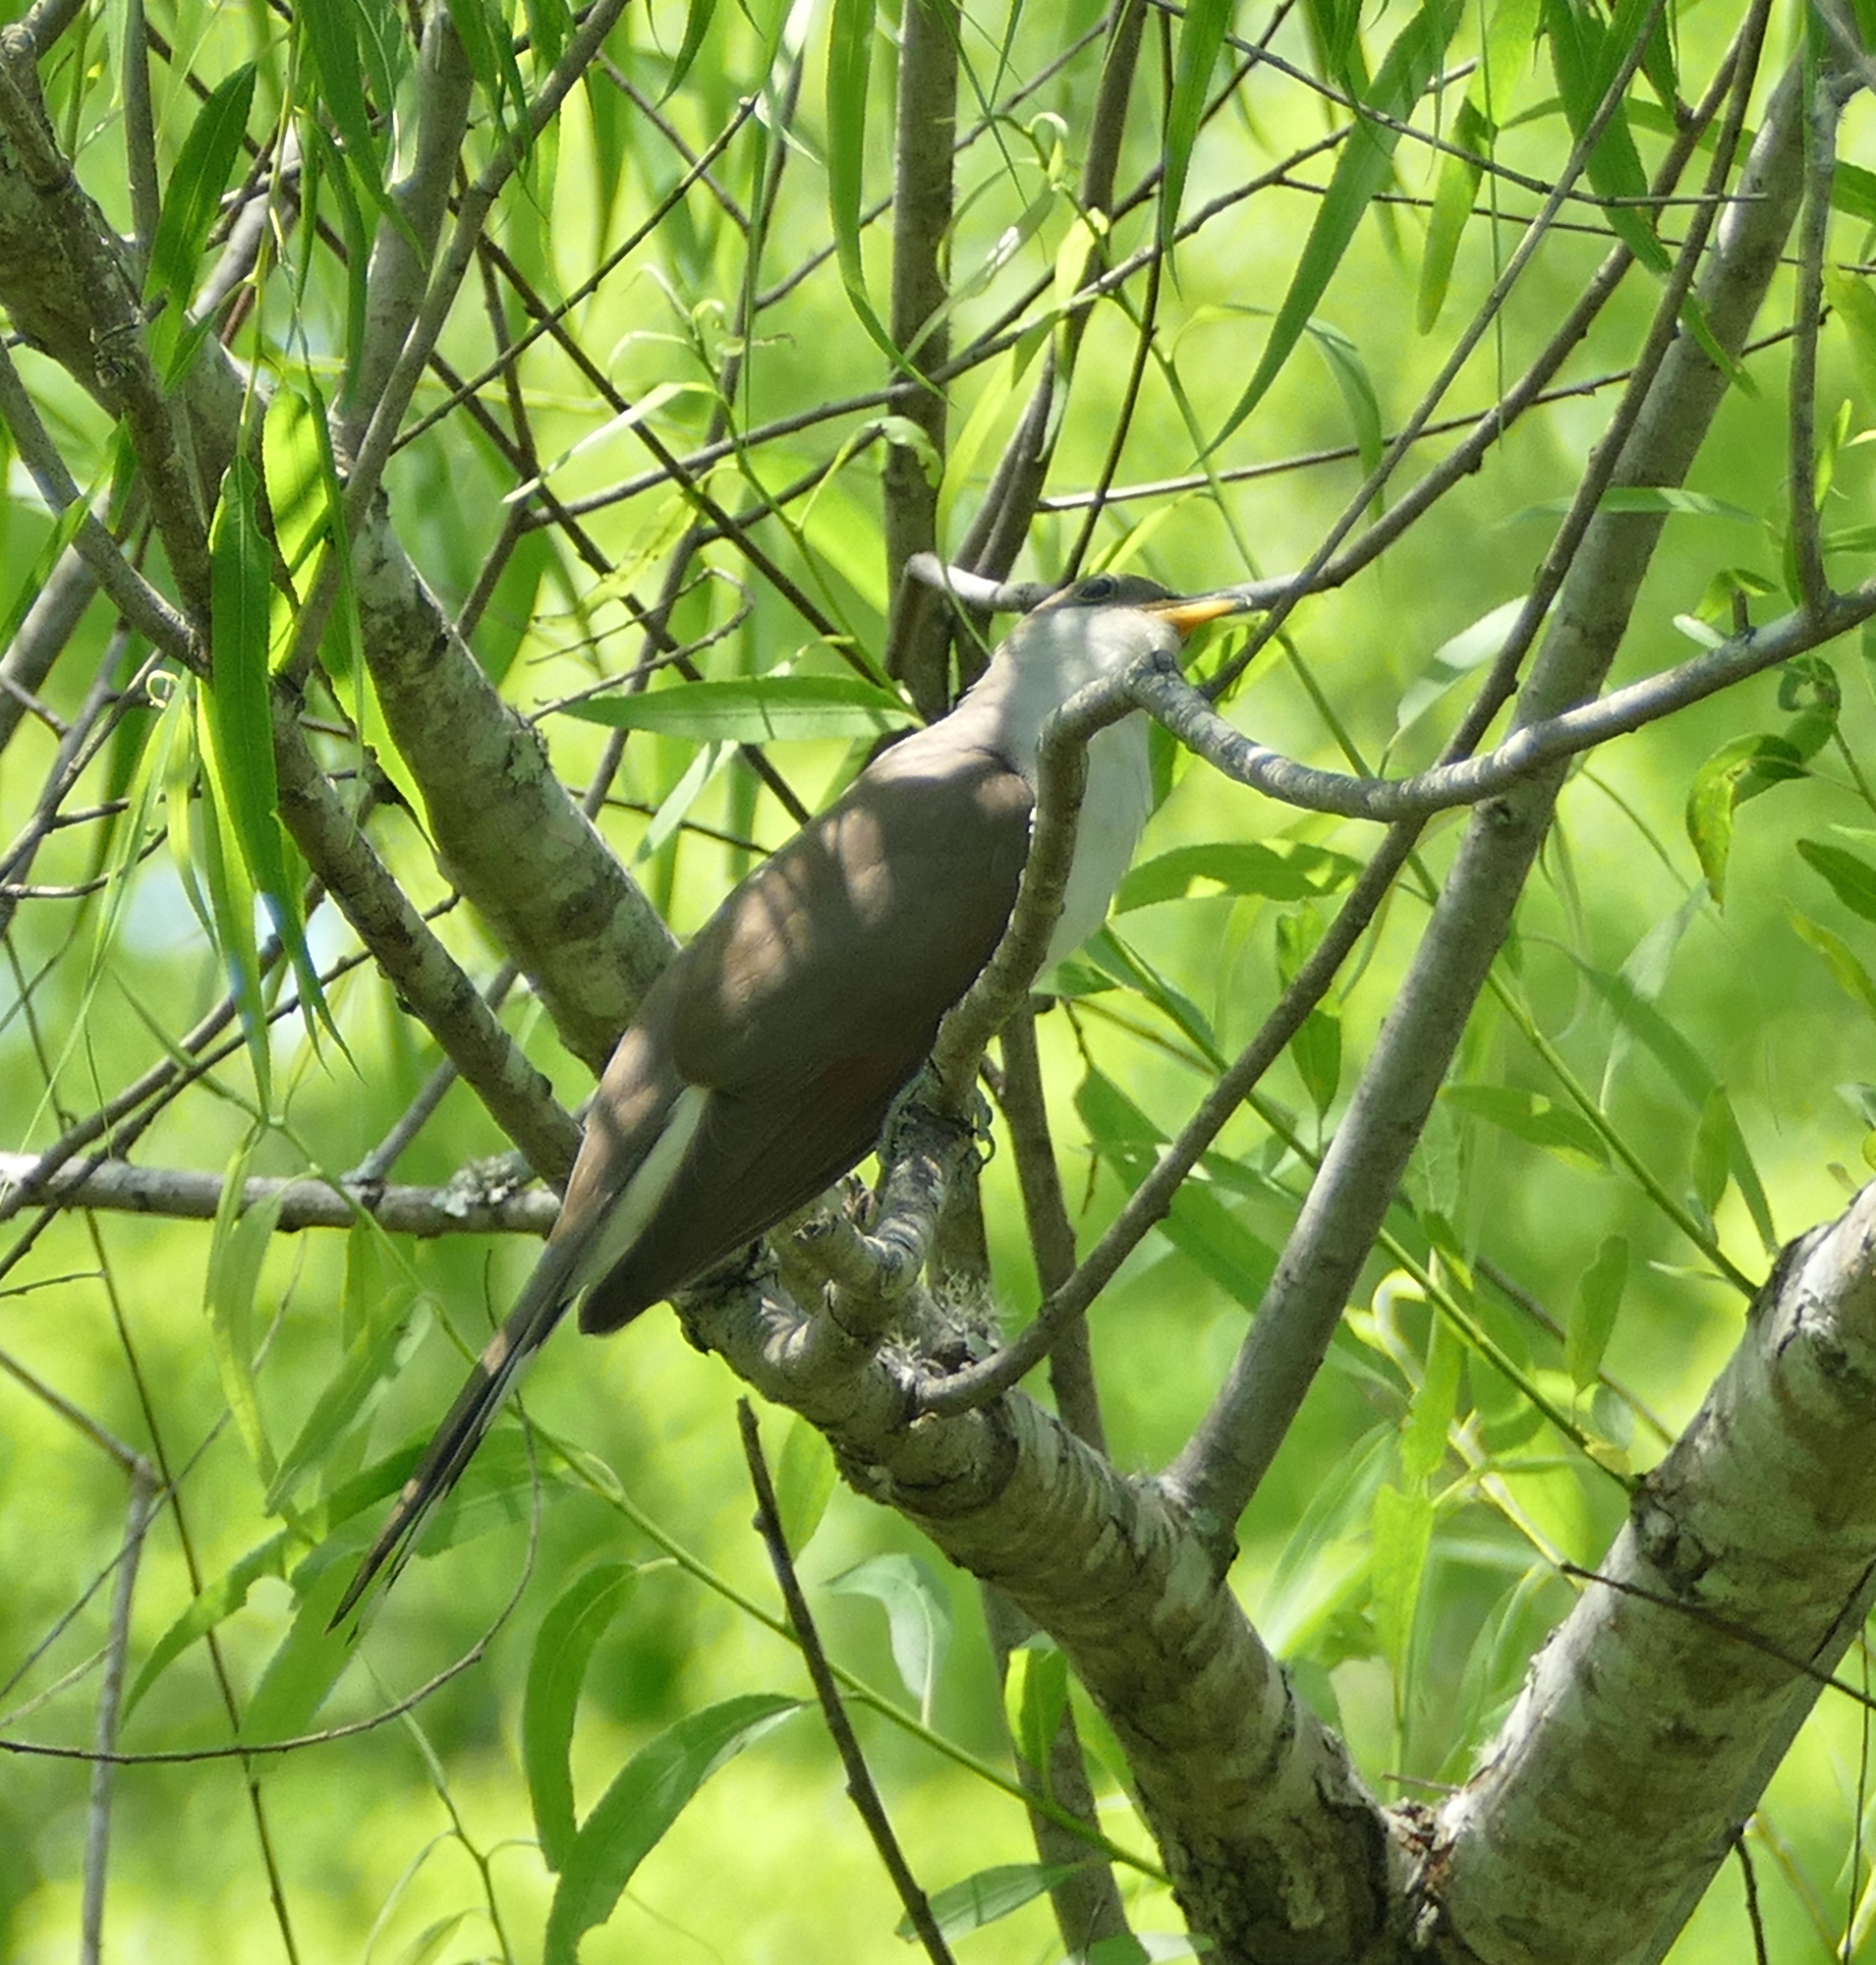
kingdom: Animalia
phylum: Chordata
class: Aves
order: Cuculiformes
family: Cuculidae
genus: Coccyzus
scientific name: Coccyzus americanus
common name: Yellow-billed cuckoo
